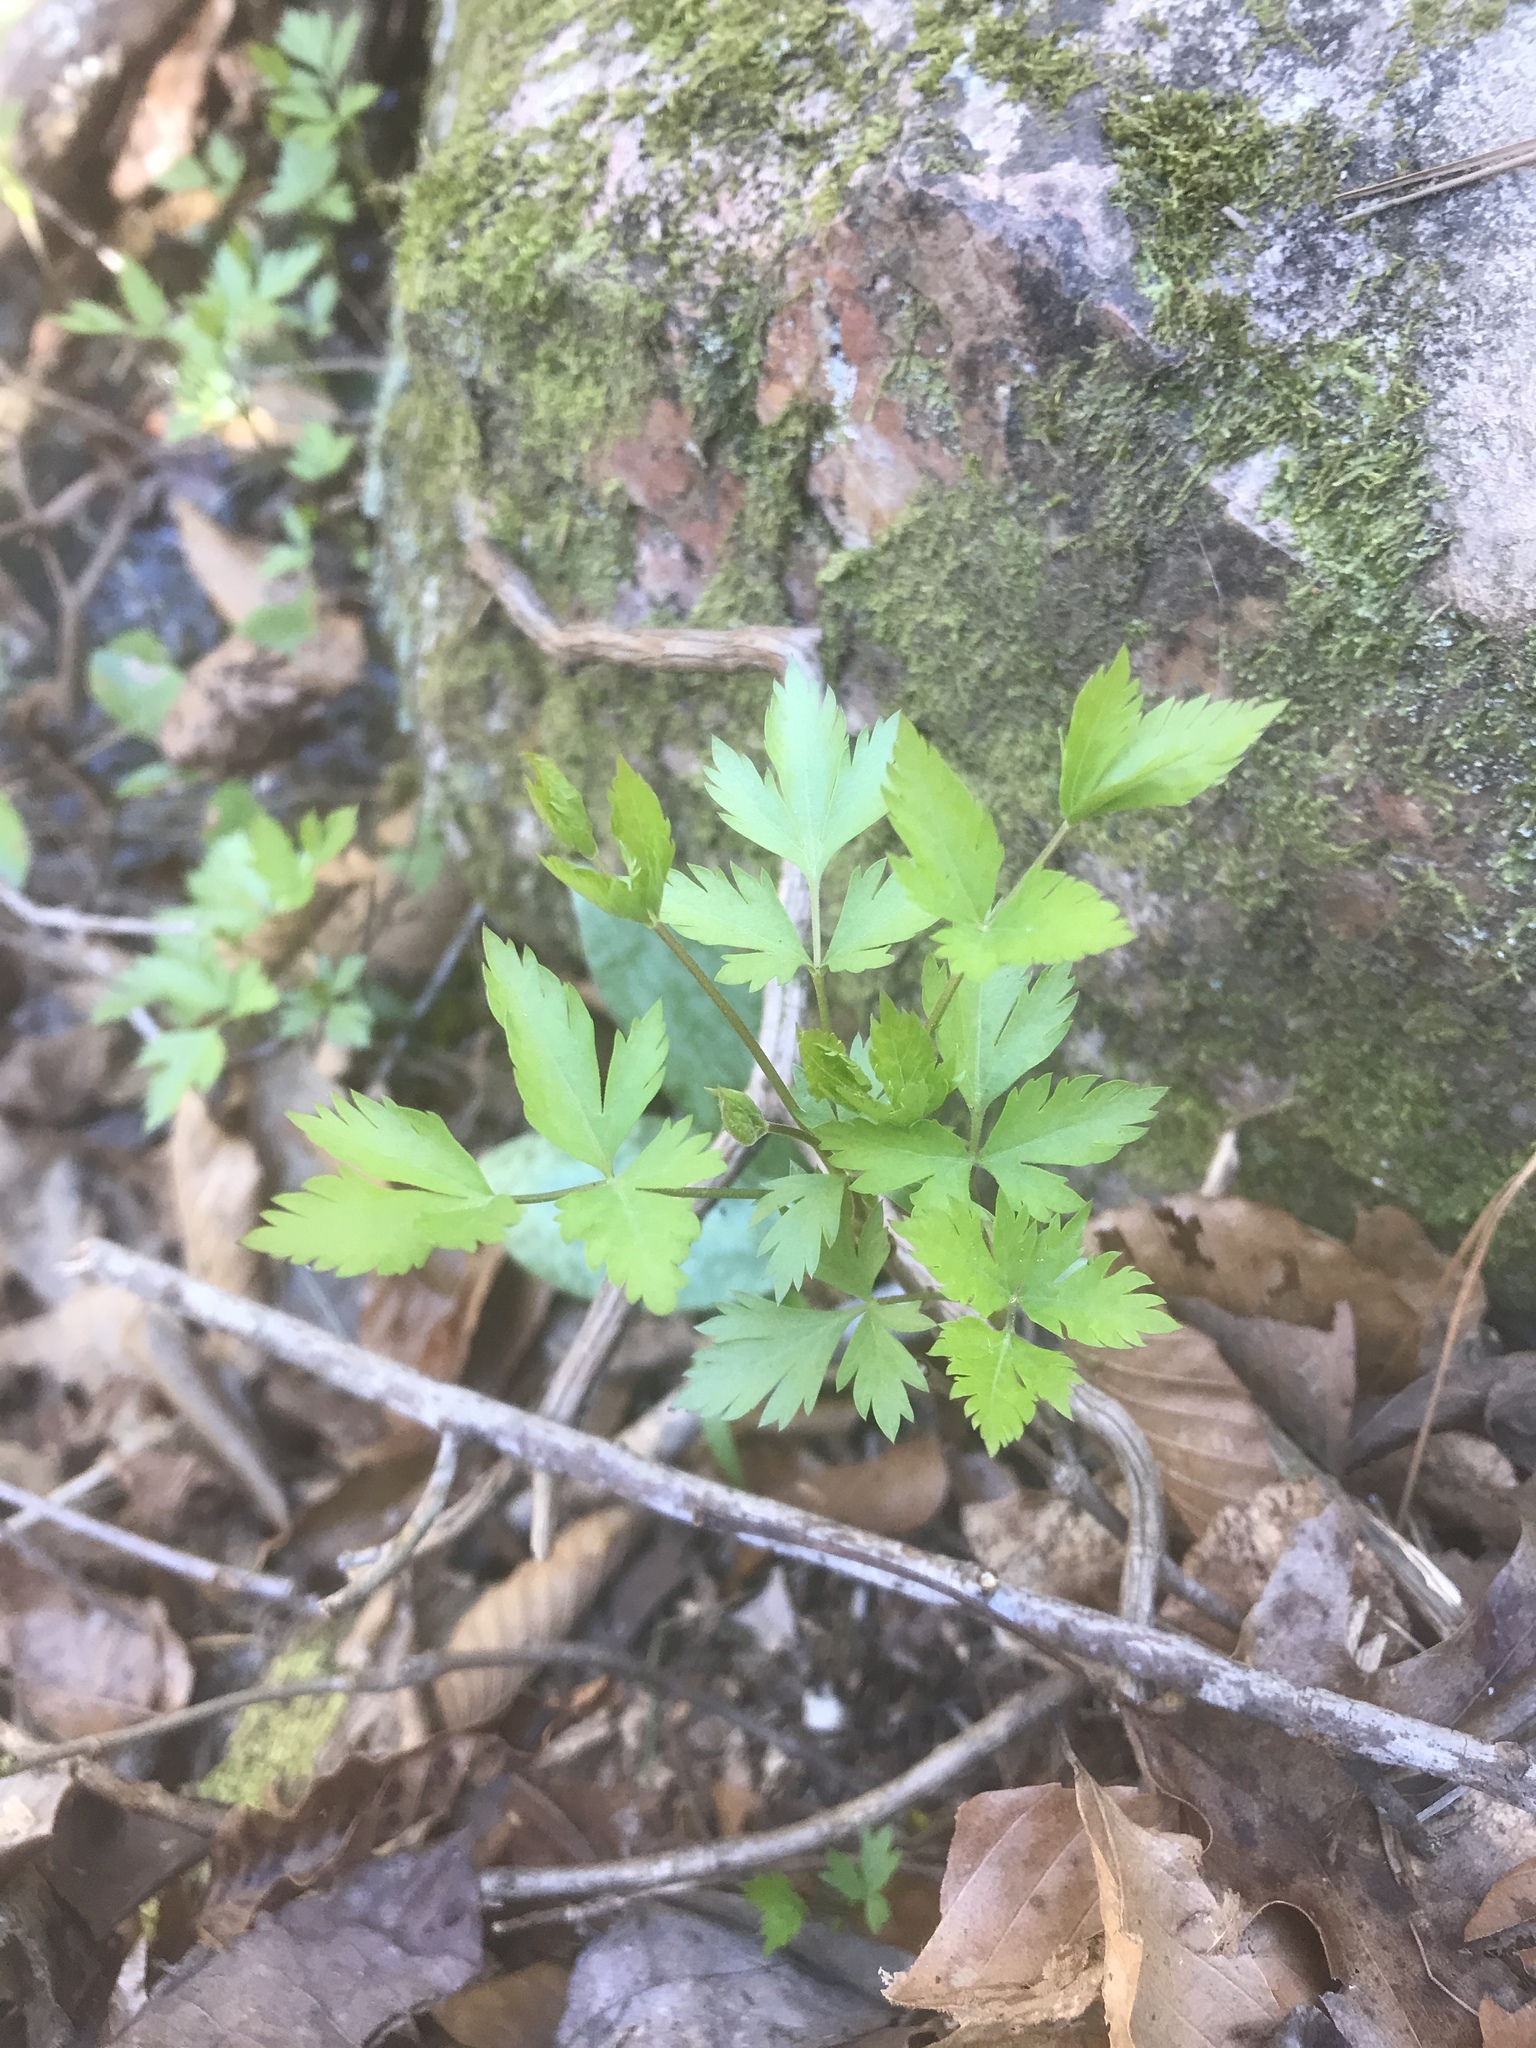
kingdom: Plantae
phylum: Tracheophyta
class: Magnoliopsida
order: Ranunculales
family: Ranunculaceae
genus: Xanthorhiza
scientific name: Xanthorhiza simplicissima
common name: Yellowroot
